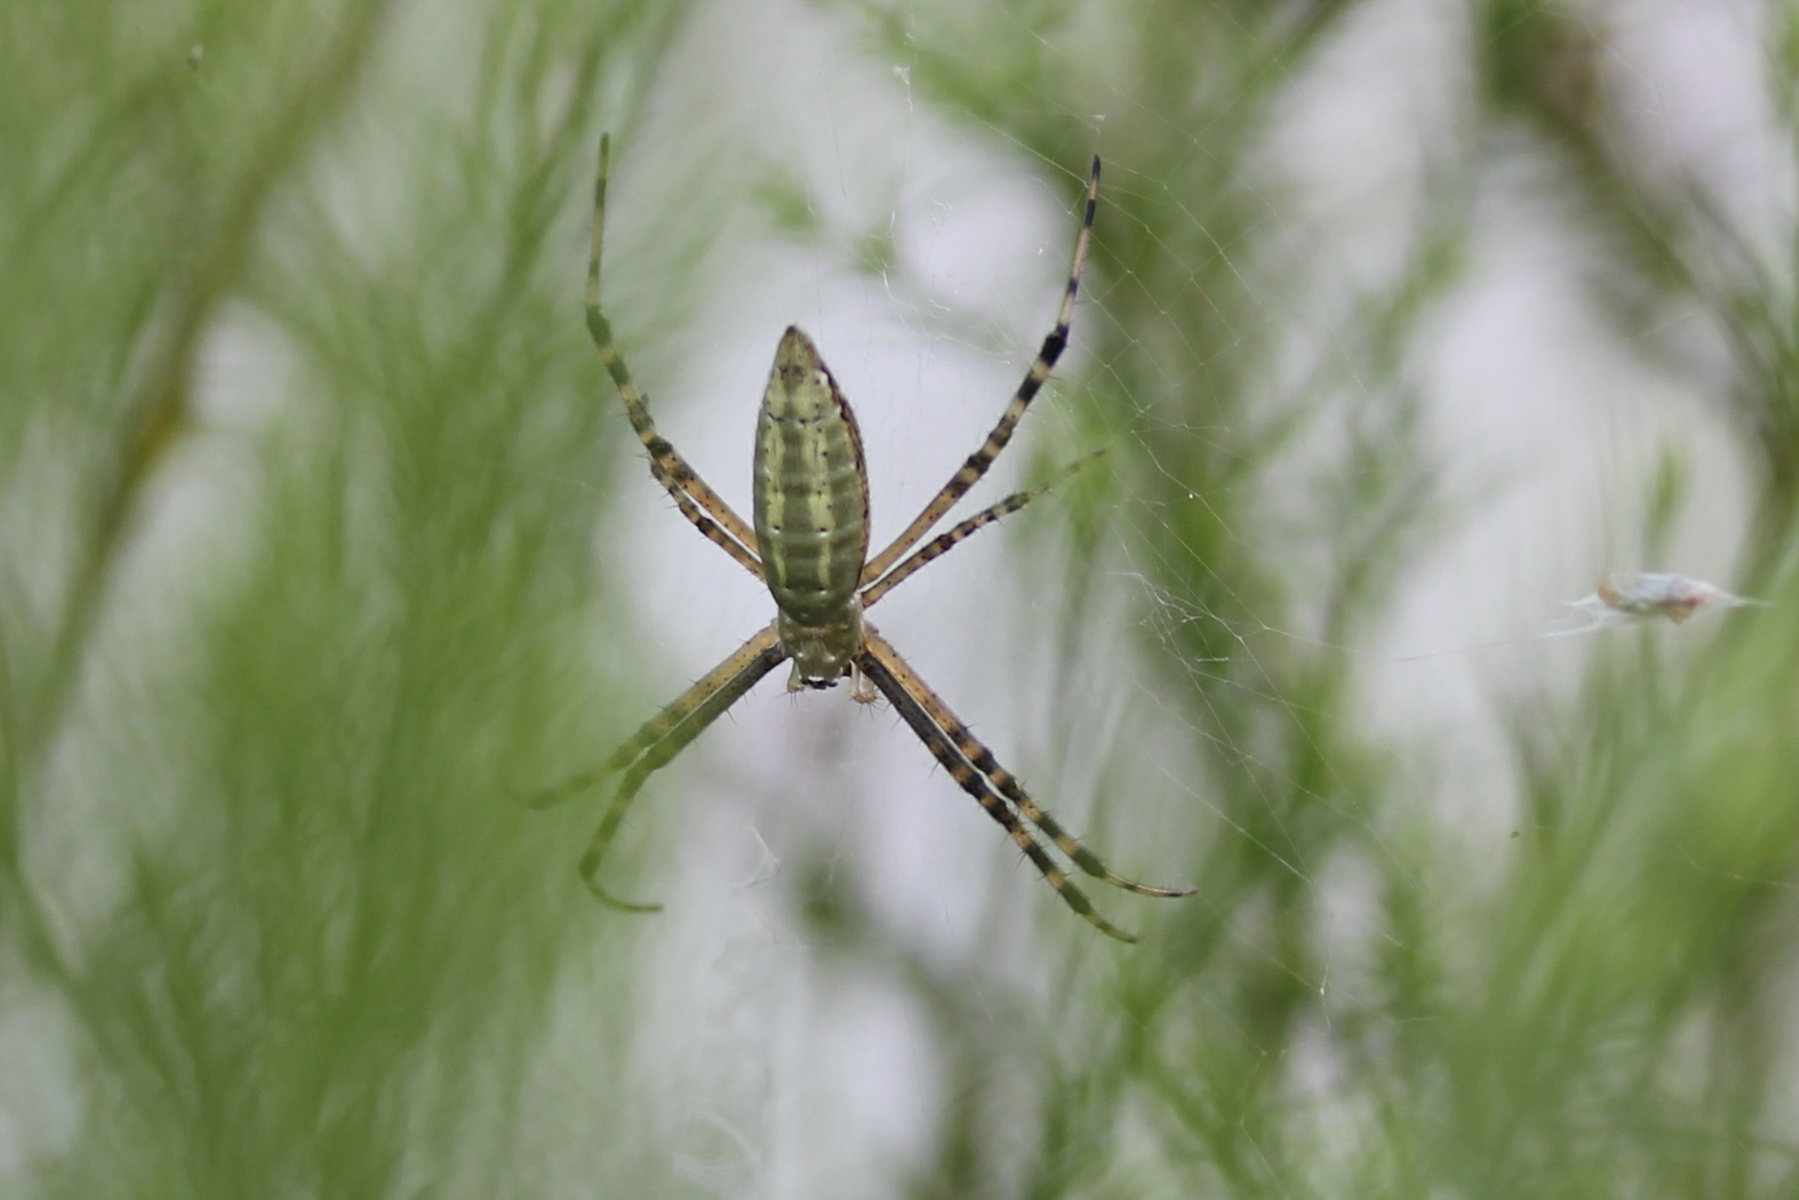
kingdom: Animalia
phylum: Arthropoda
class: Arachnida
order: Araneae
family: Araneidae
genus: Argiope
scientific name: Argiope trifasciata
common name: Banded garden spider
